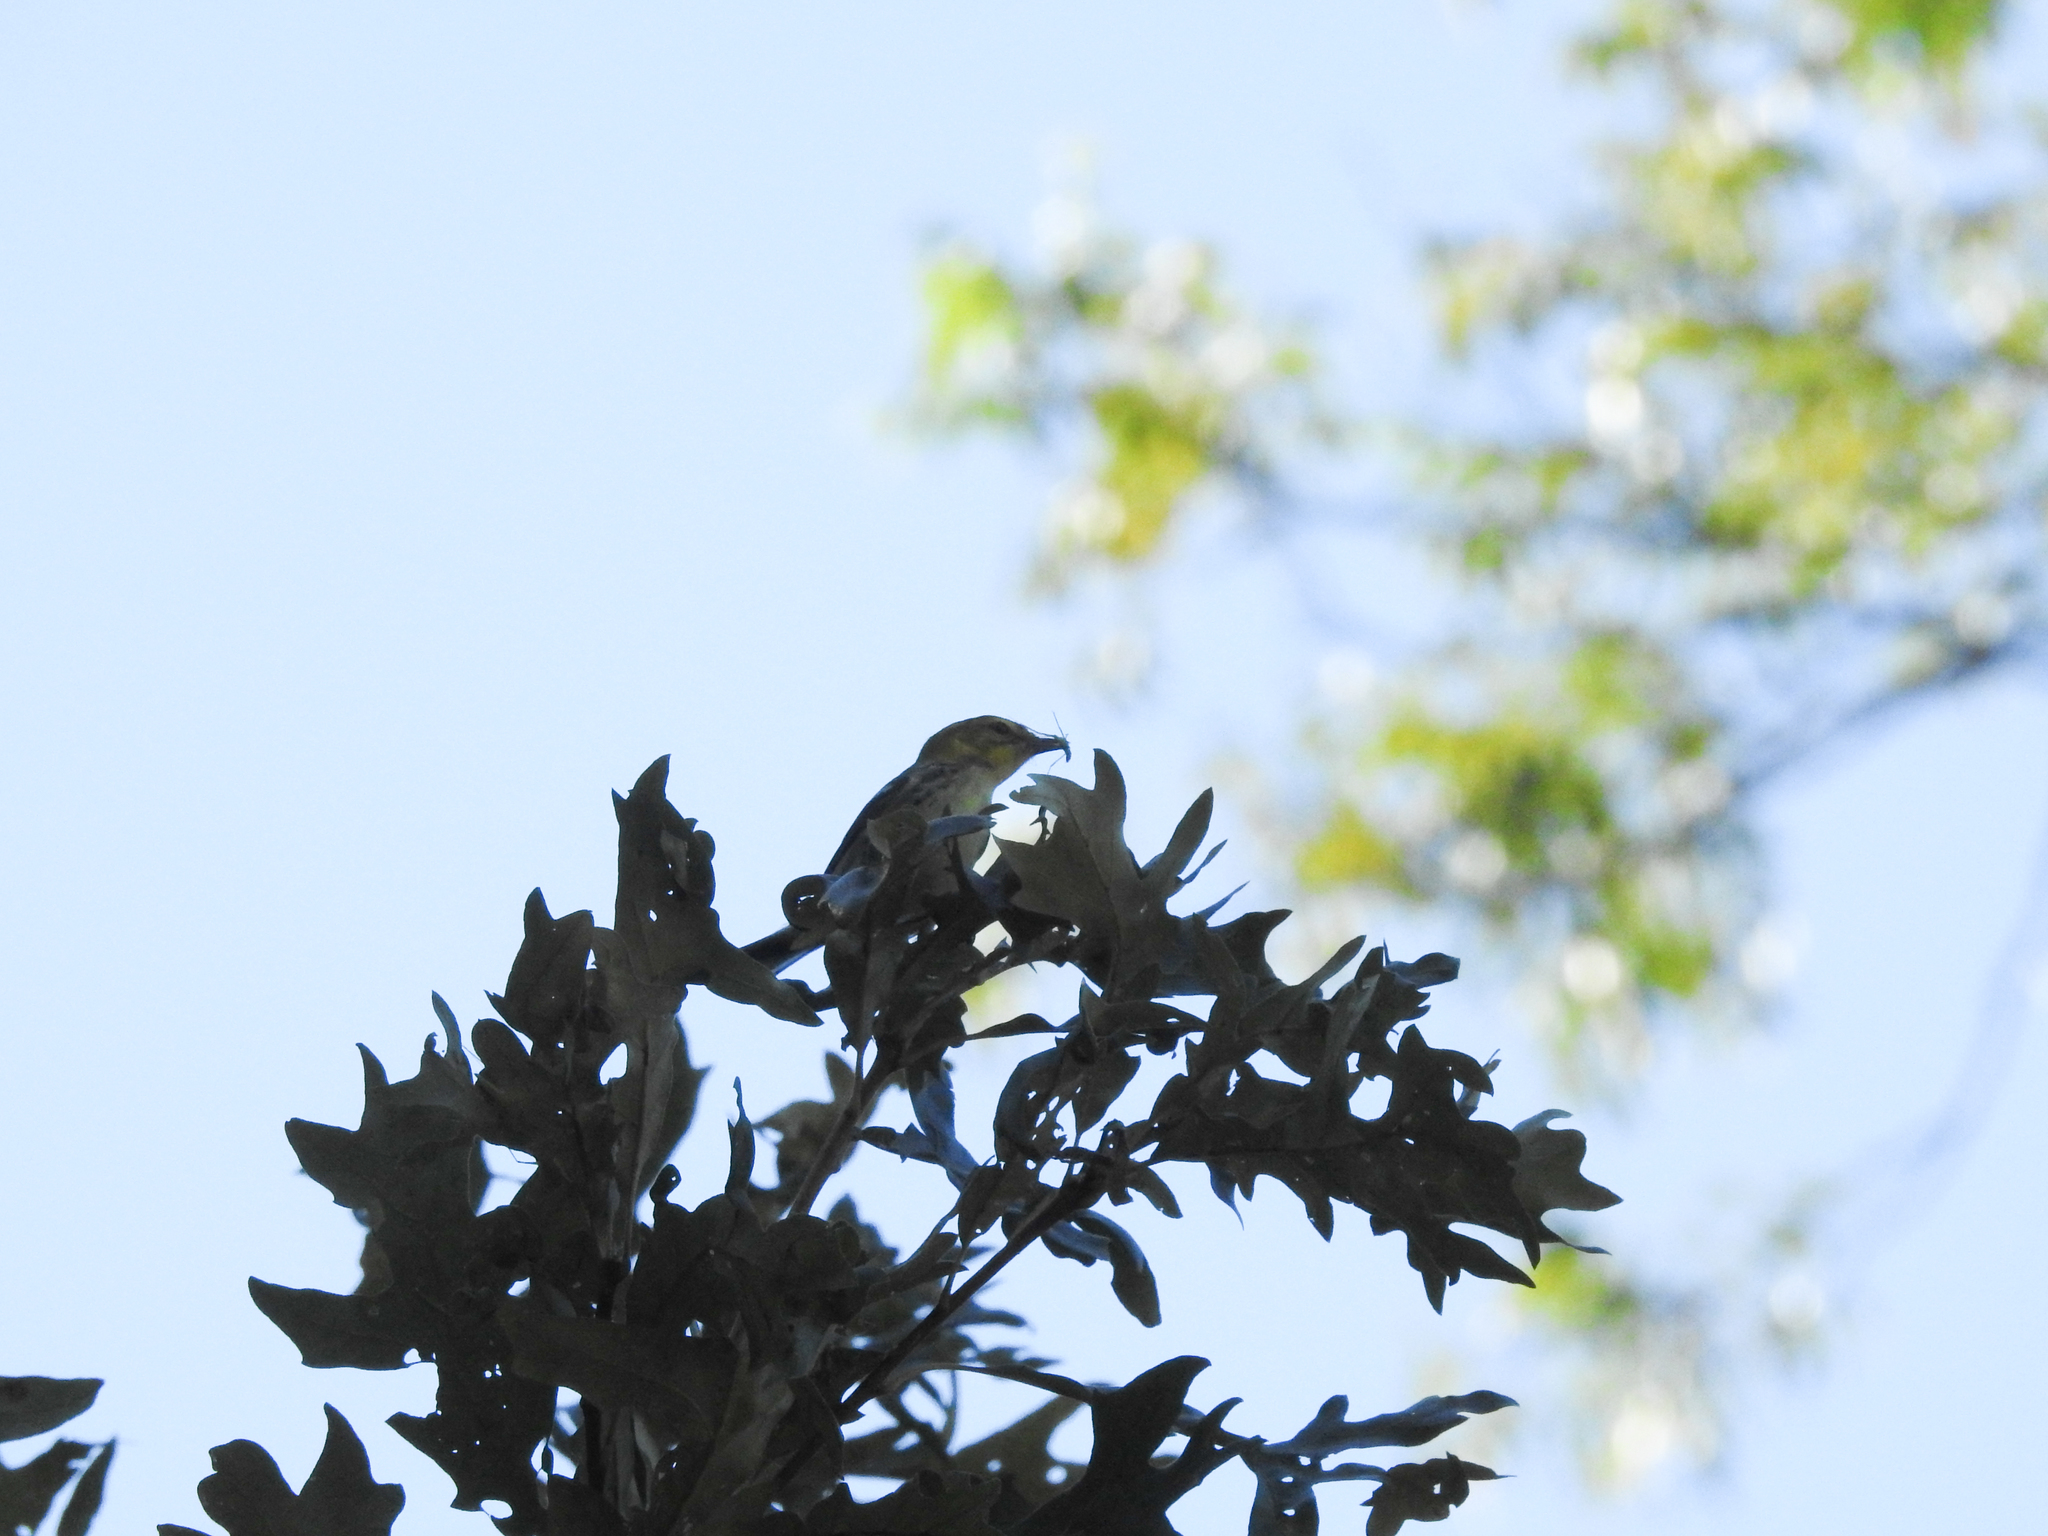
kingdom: Animalia
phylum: Chordata
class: Aves
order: Passeriformes
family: Parulidae
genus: Setophaga
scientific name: Setophaga virens
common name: Black-throated green warbler
